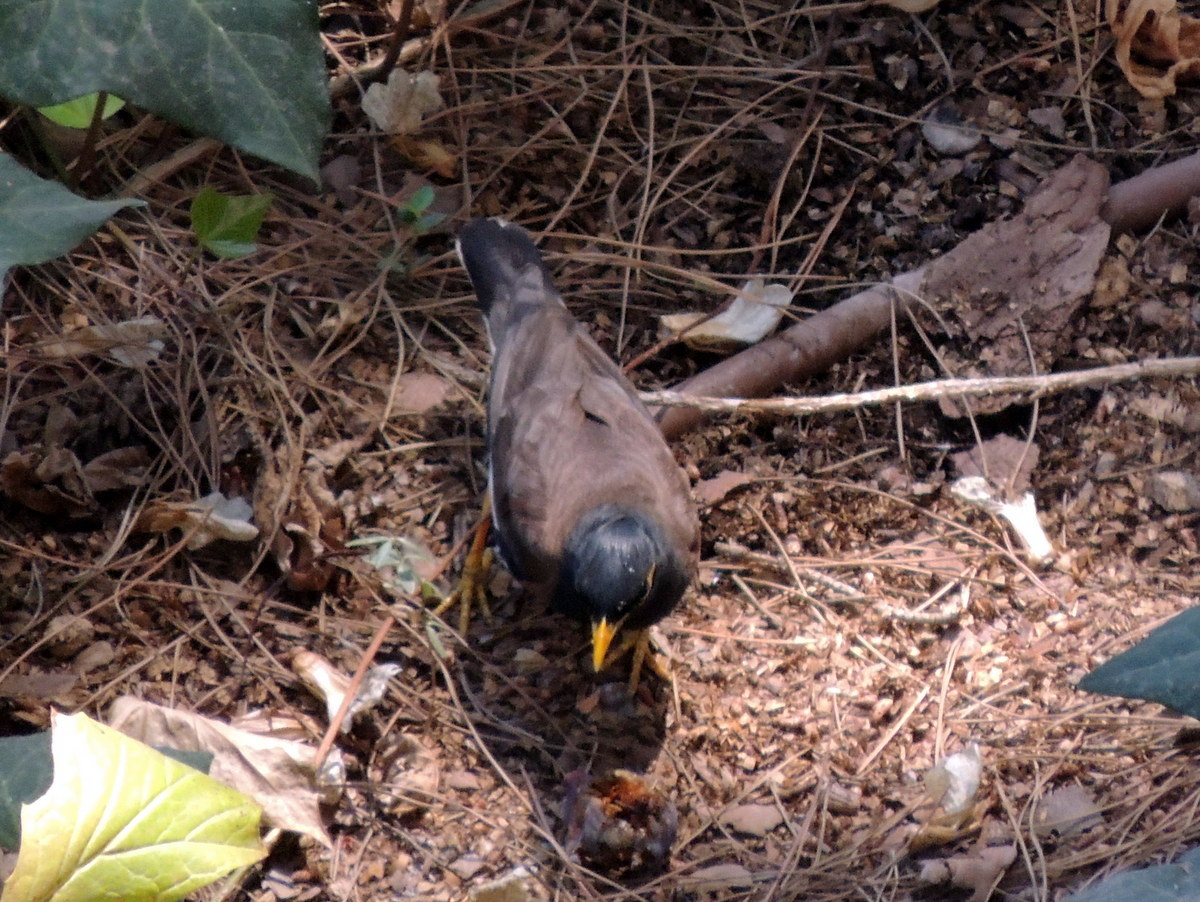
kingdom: Animalia
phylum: Chordata
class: Aves
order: Passeriformes
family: Sturnidae
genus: Acridotheres
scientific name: Acridotheres tristis
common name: Common myna
